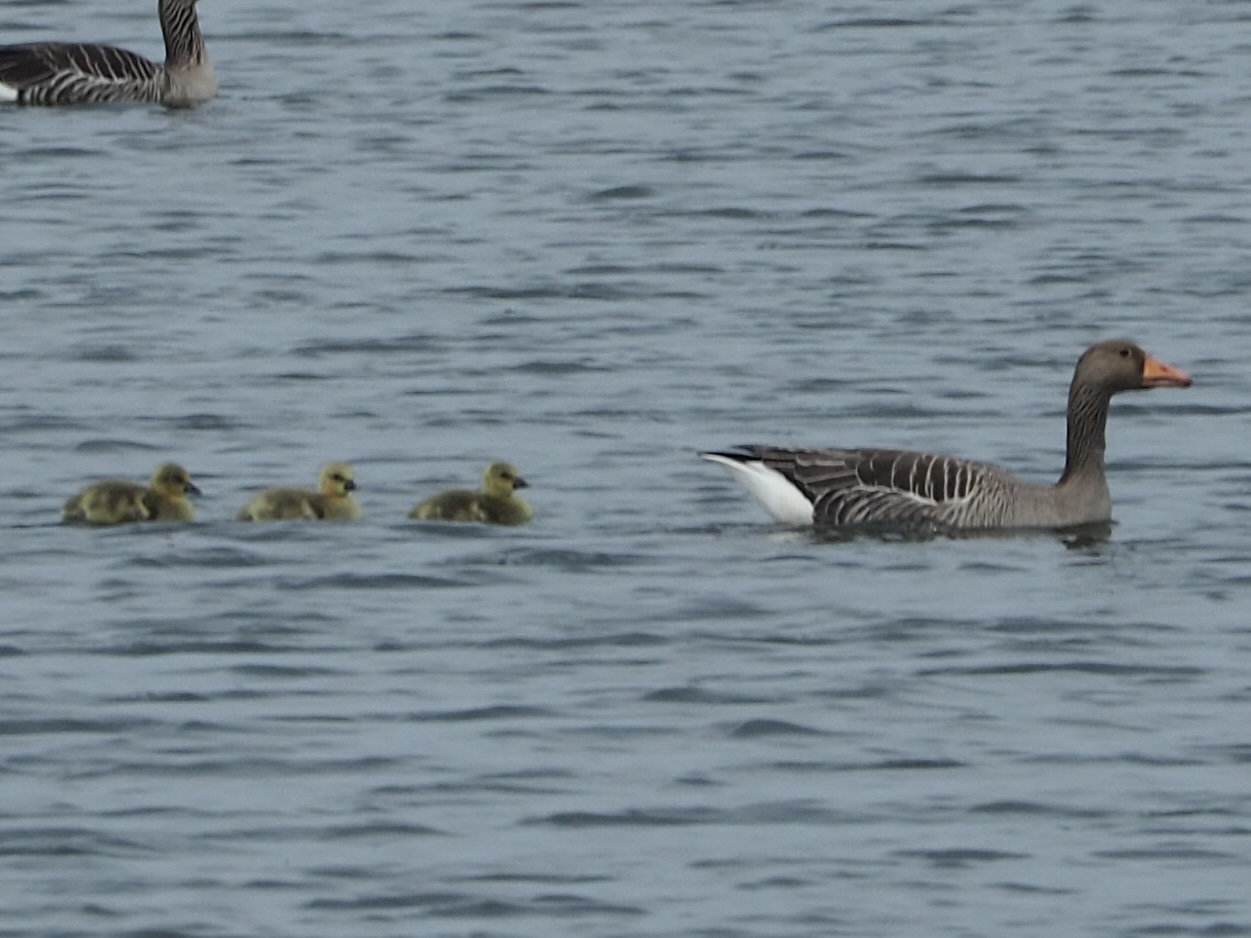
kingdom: Animalia
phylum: Chordata
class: Aves
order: Anseriformes
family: Anatidae
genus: Anser
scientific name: Anser anser
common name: Greylag goose
